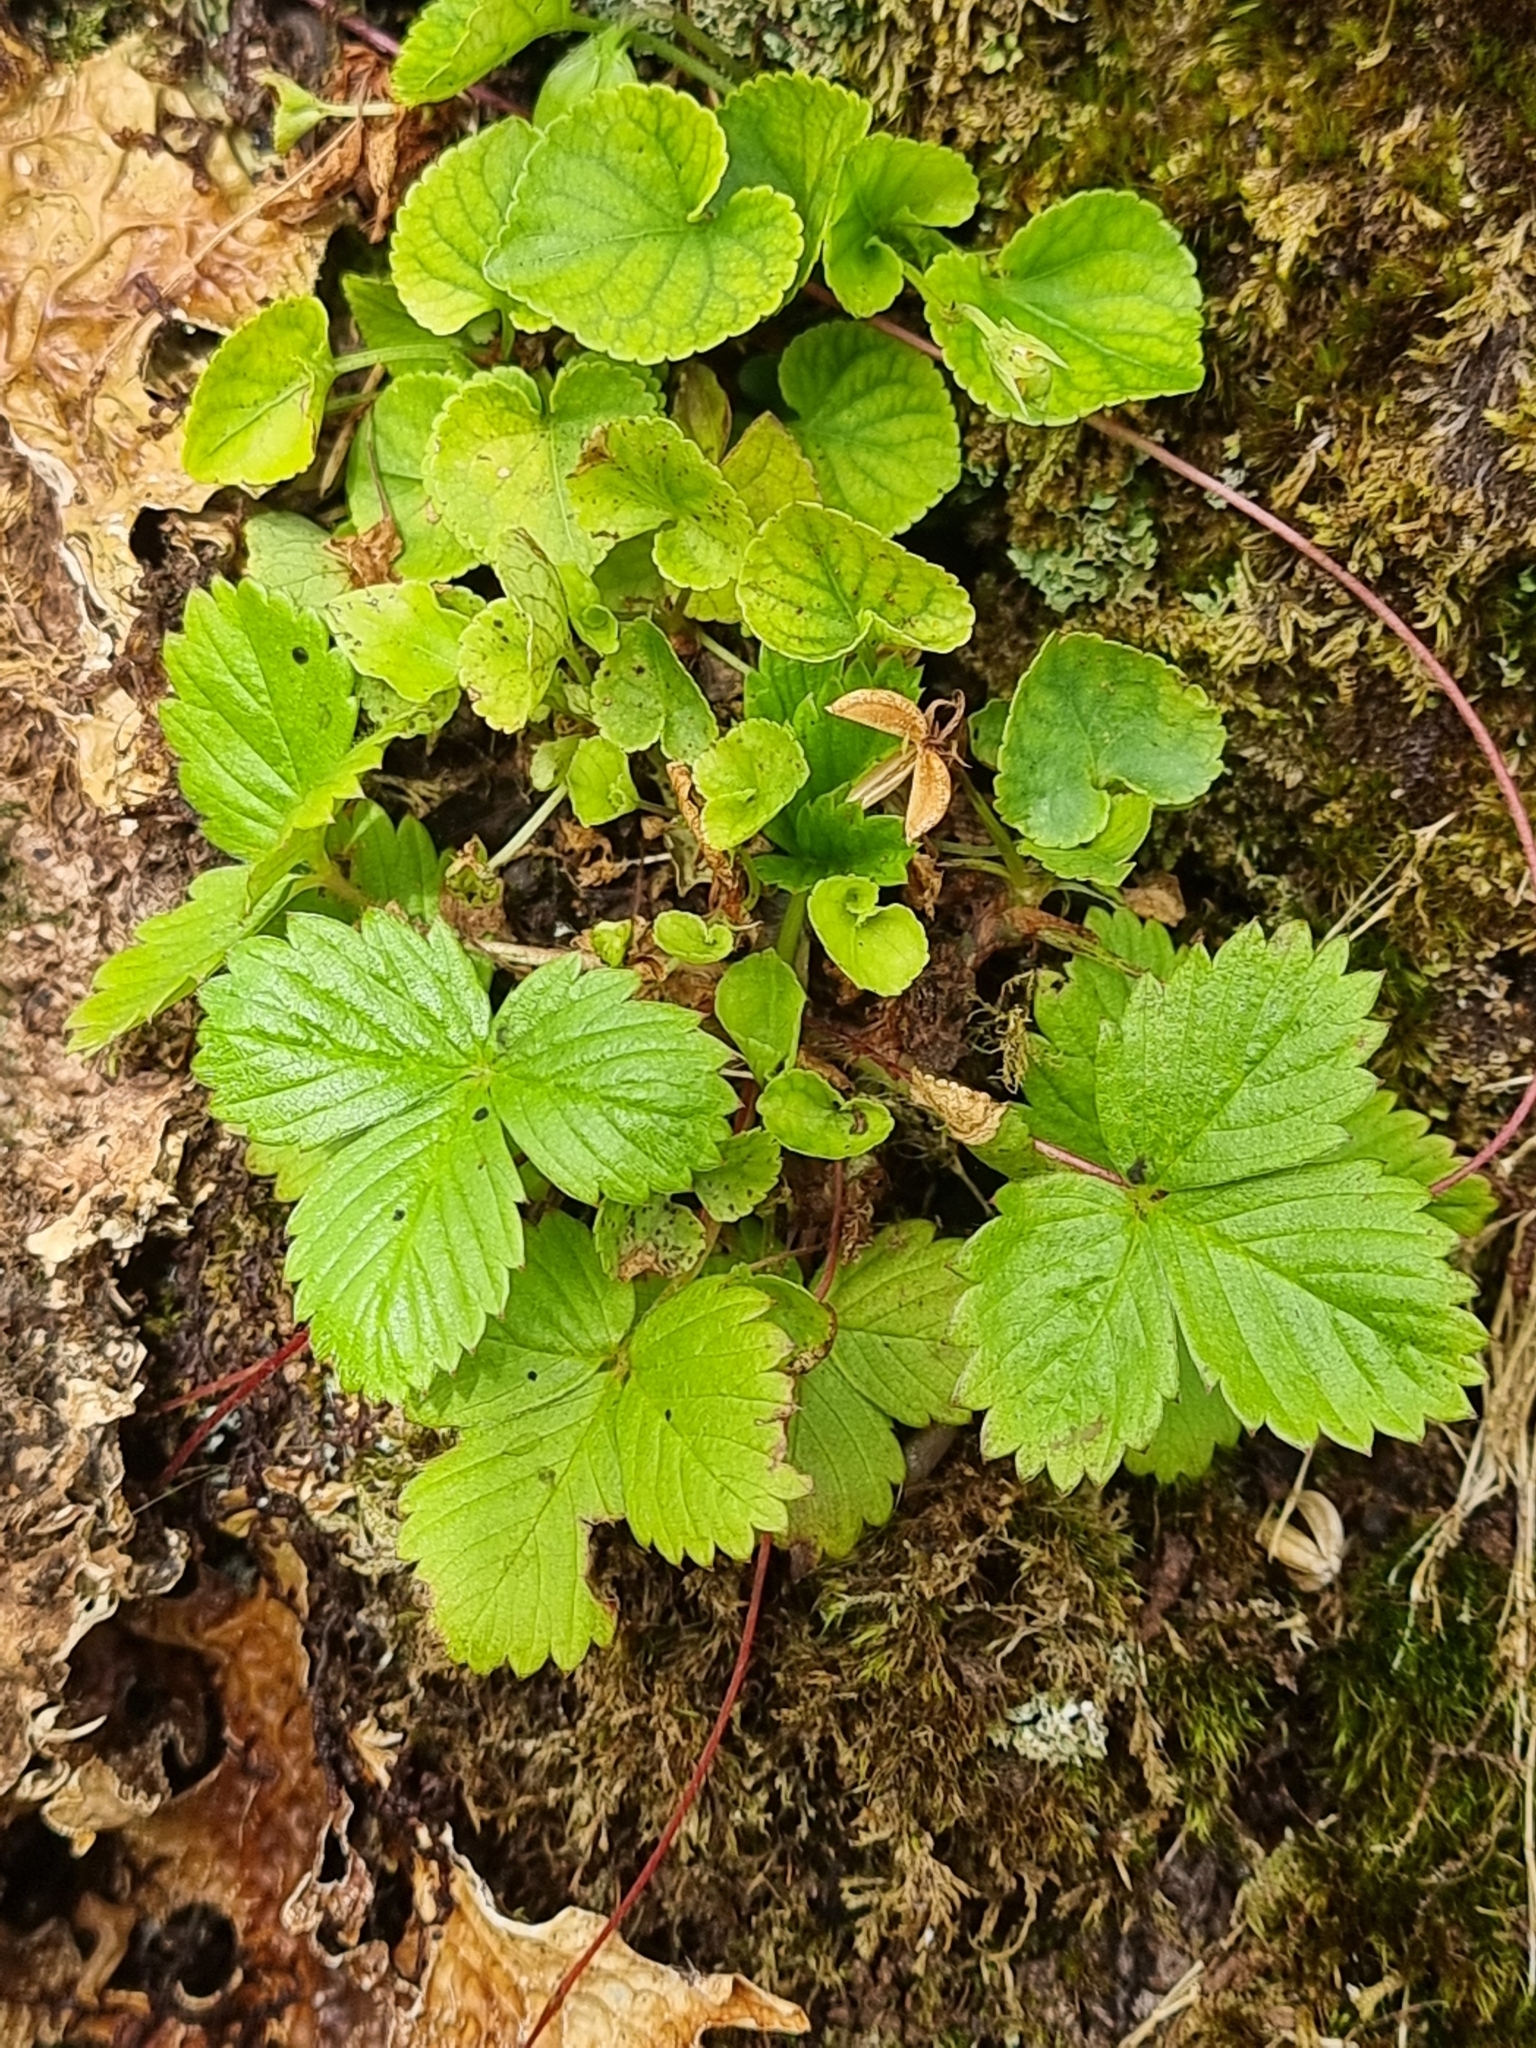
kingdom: Plantae
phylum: Tracheophyta
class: Magnoliopsida
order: Rosales
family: Rosaceae
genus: Fragaria
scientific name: Fragaria vesca
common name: Wild strawberry
